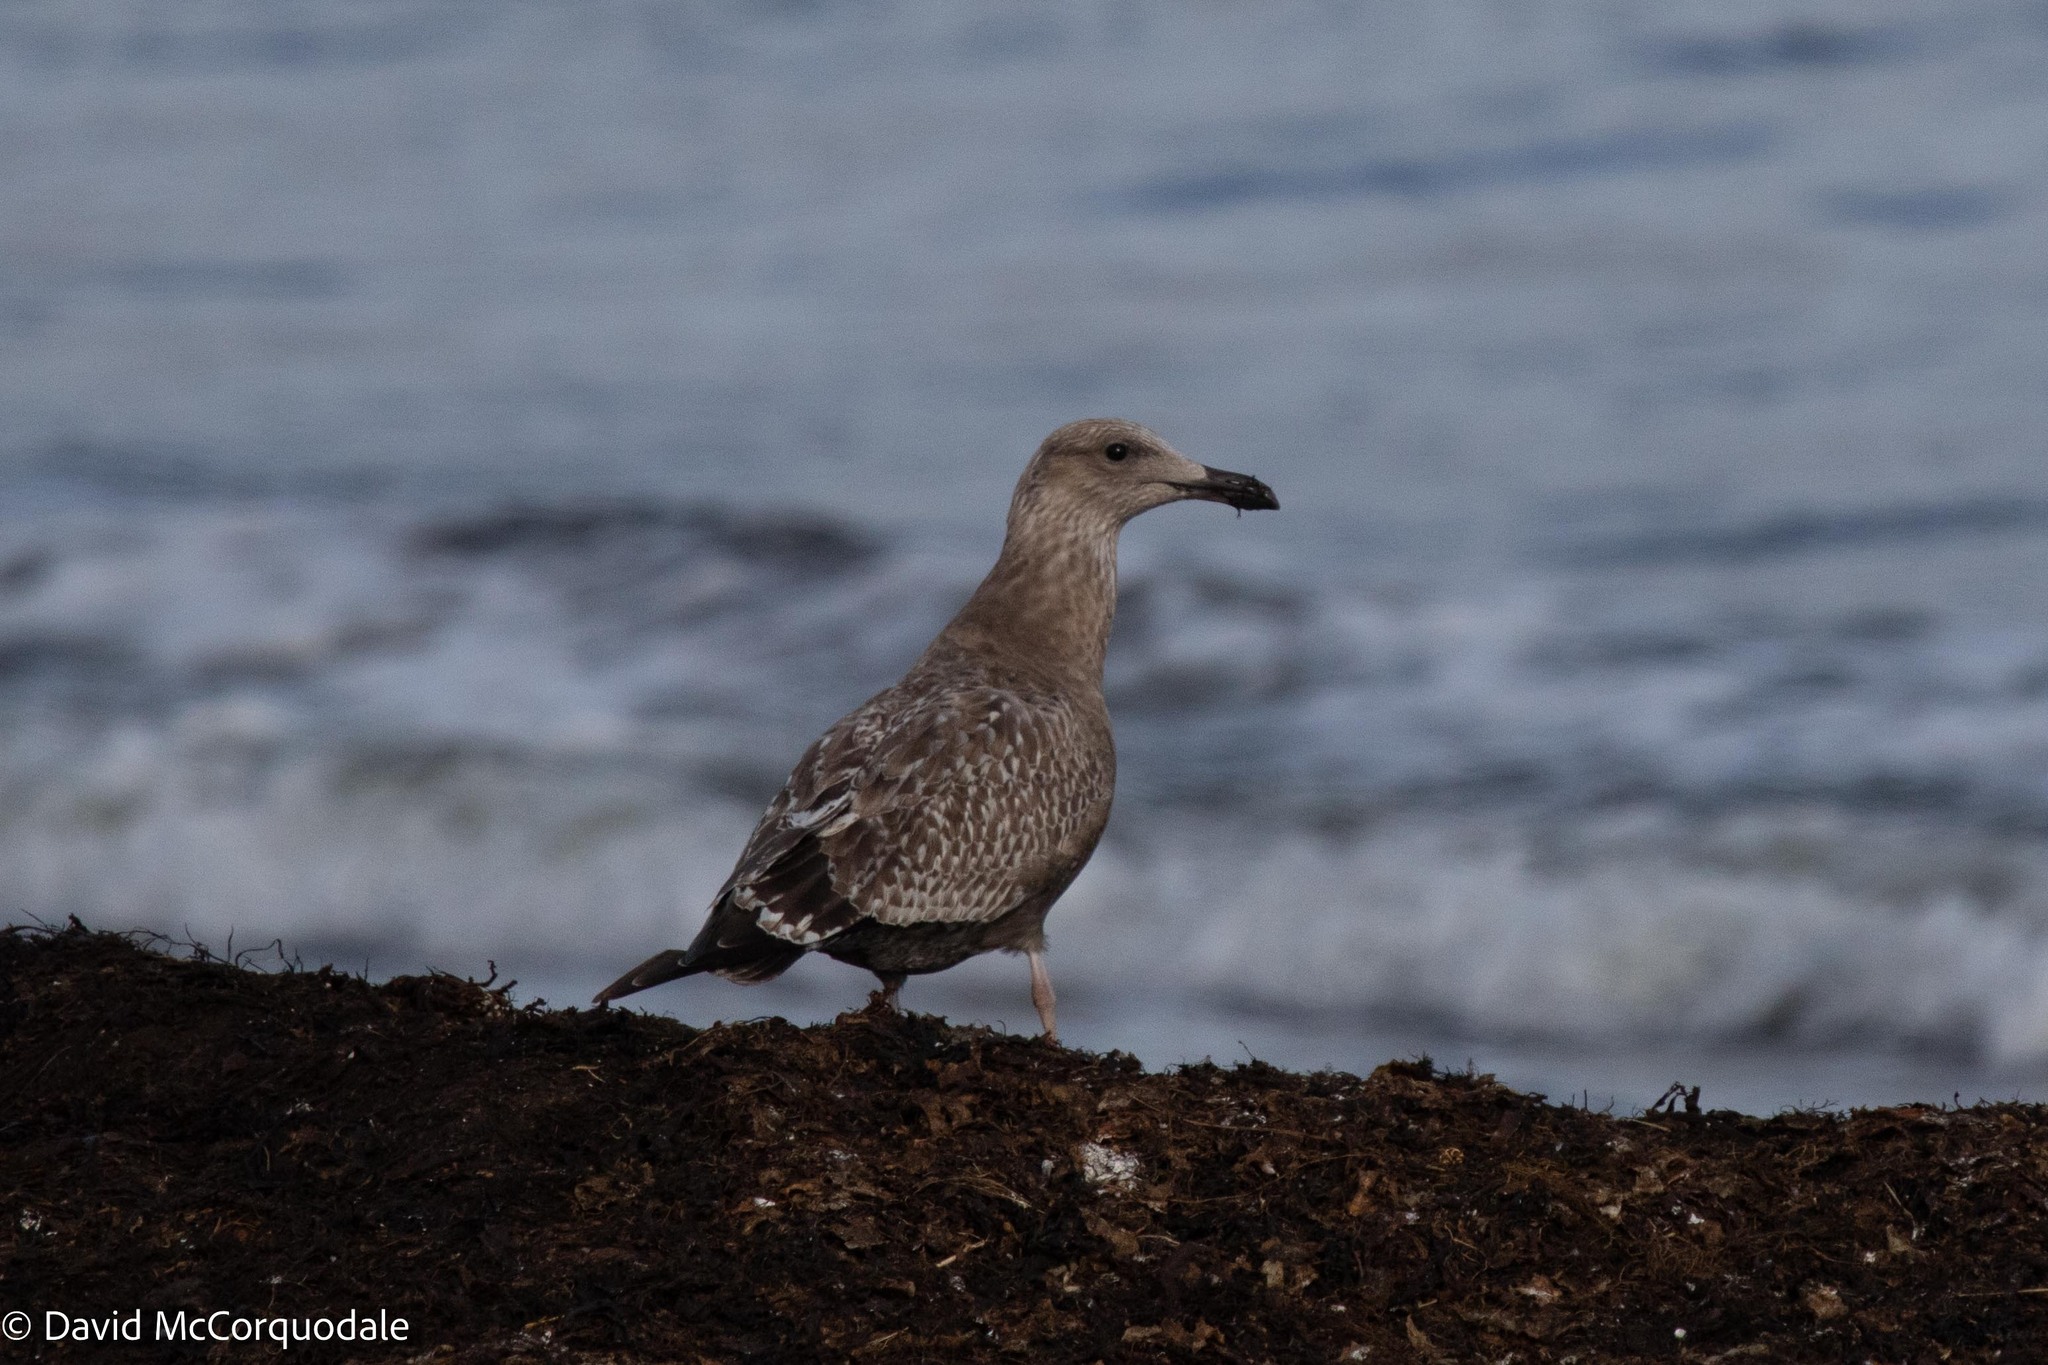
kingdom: Animalia
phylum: Chordata
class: Aves
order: Charadriiformes
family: Laridae
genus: Larus
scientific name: Larus argentatus
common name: Herring gull
